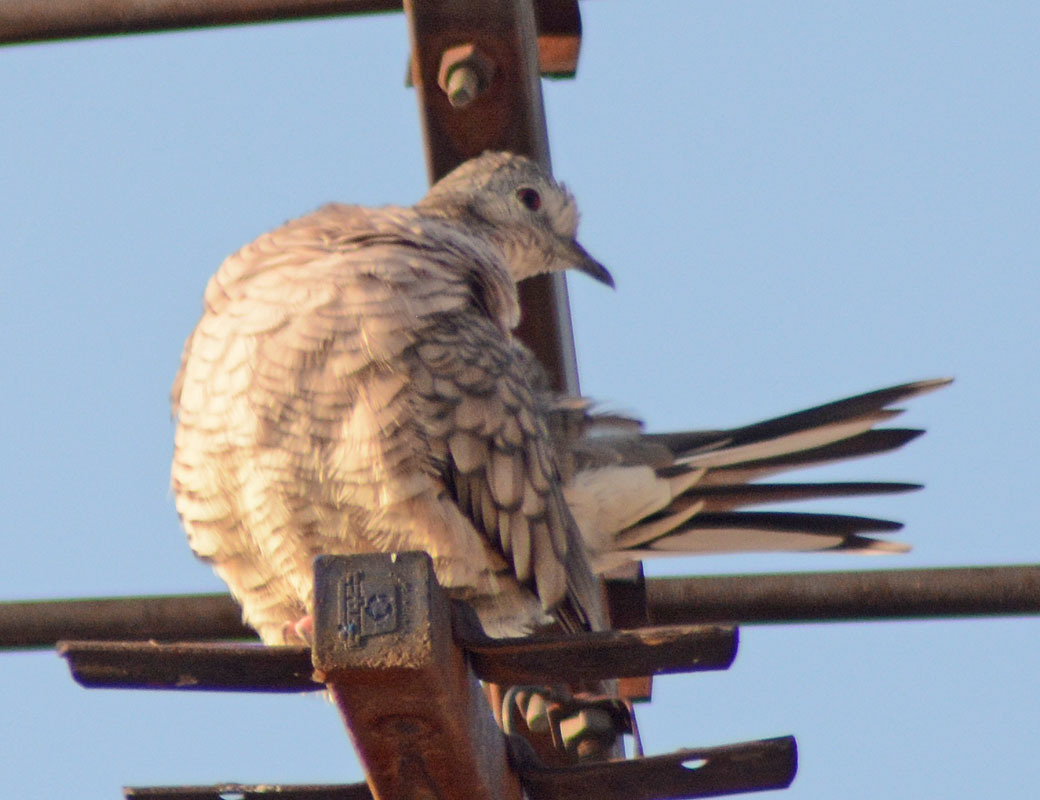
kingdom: Animalia
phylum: Chordata
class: Aves
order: Columbiformes
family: Columbidae
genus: Columbina
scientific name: Columbina inca
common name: Inca dove
